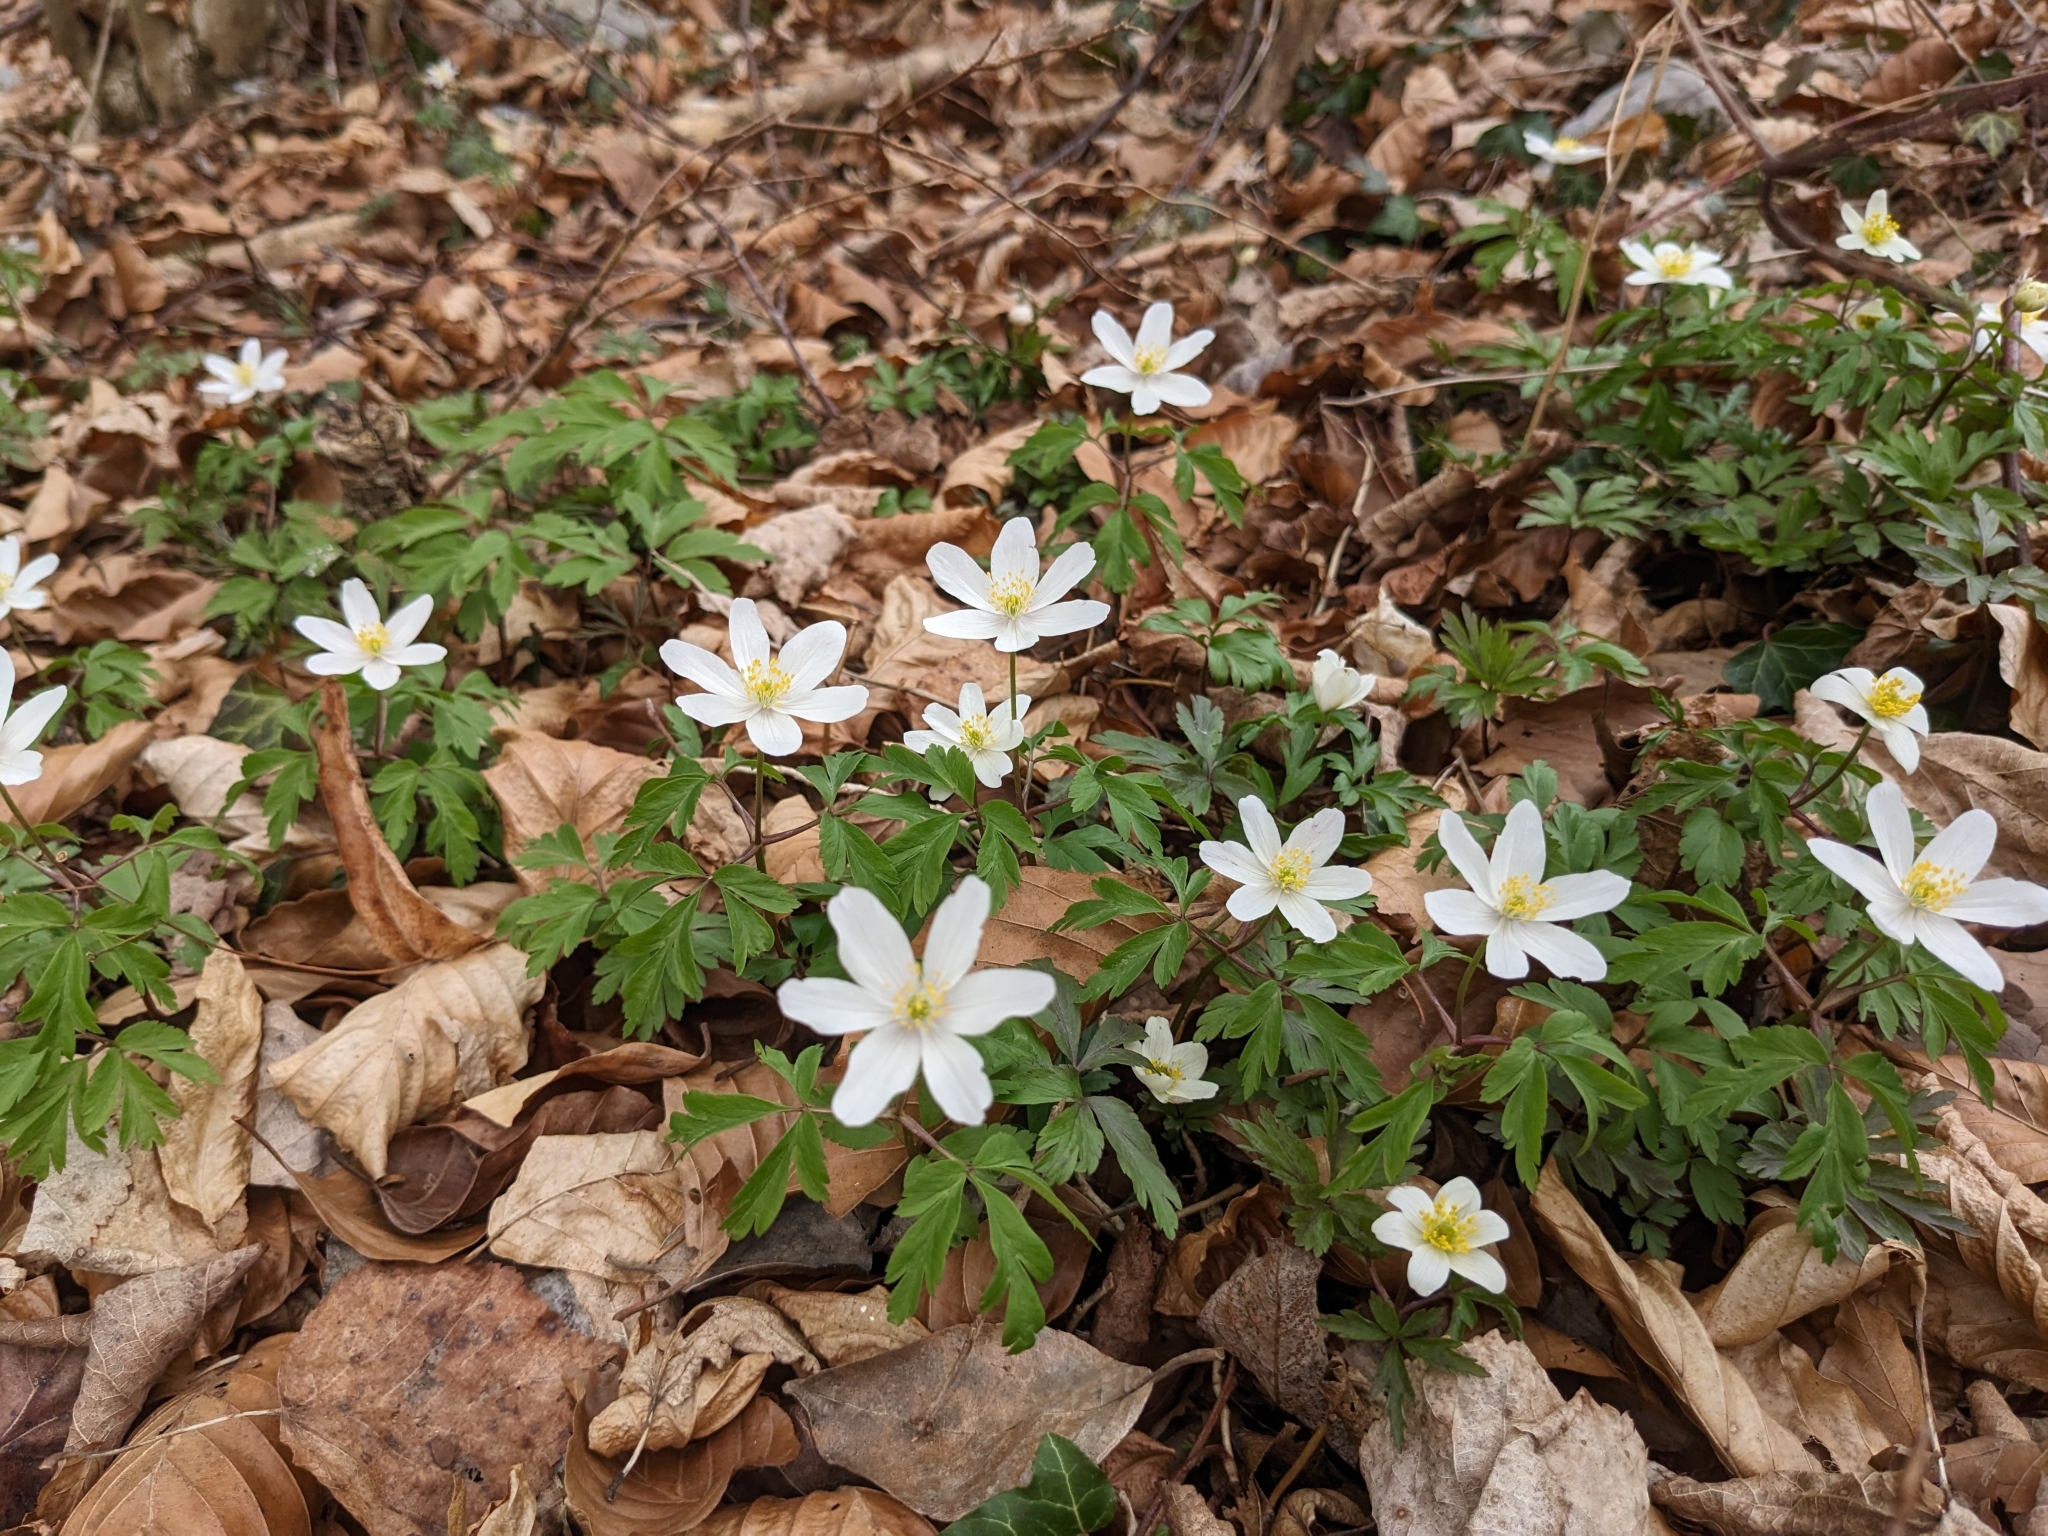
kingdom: Plantae
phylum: Tracheophyta
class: Magnoliopsida
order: Ranunculales
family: Ranunculaceae
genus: Anemone
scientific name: Anemone nemorosa
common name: Wood anemone
